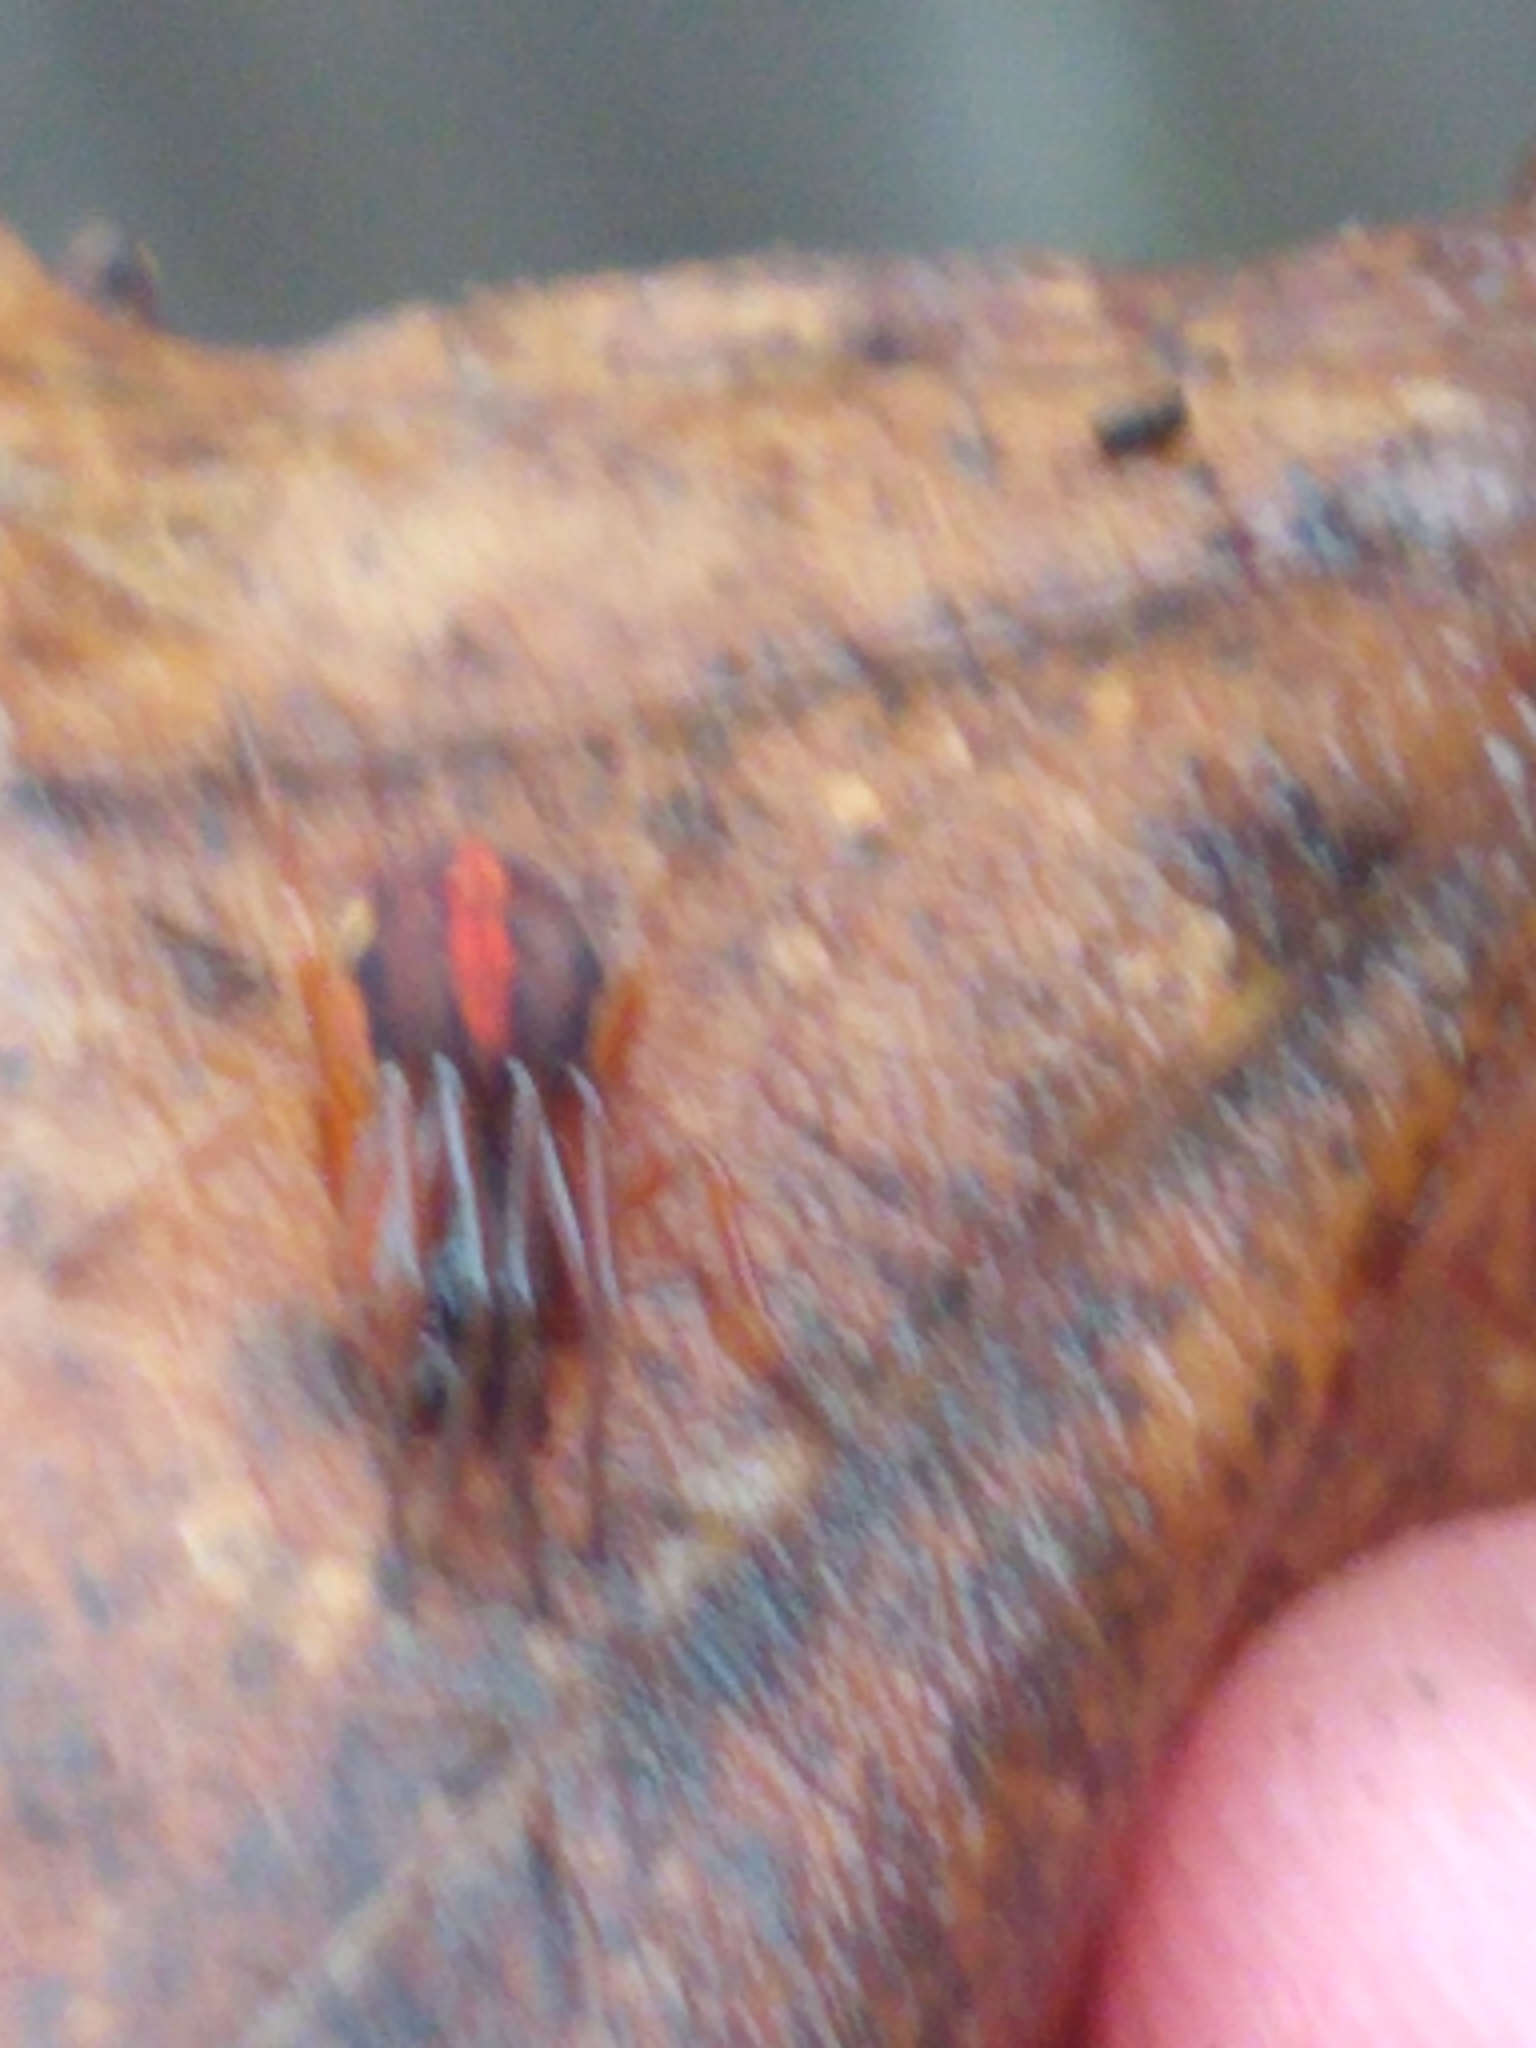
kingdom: Animalia
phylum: Arthropoda
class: Arachnida
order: Araneae
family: Tetragnathidae
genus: Pachygnatha
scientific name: Pachygnatha autumnalis
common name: Big-eyed thick-jawed spider
